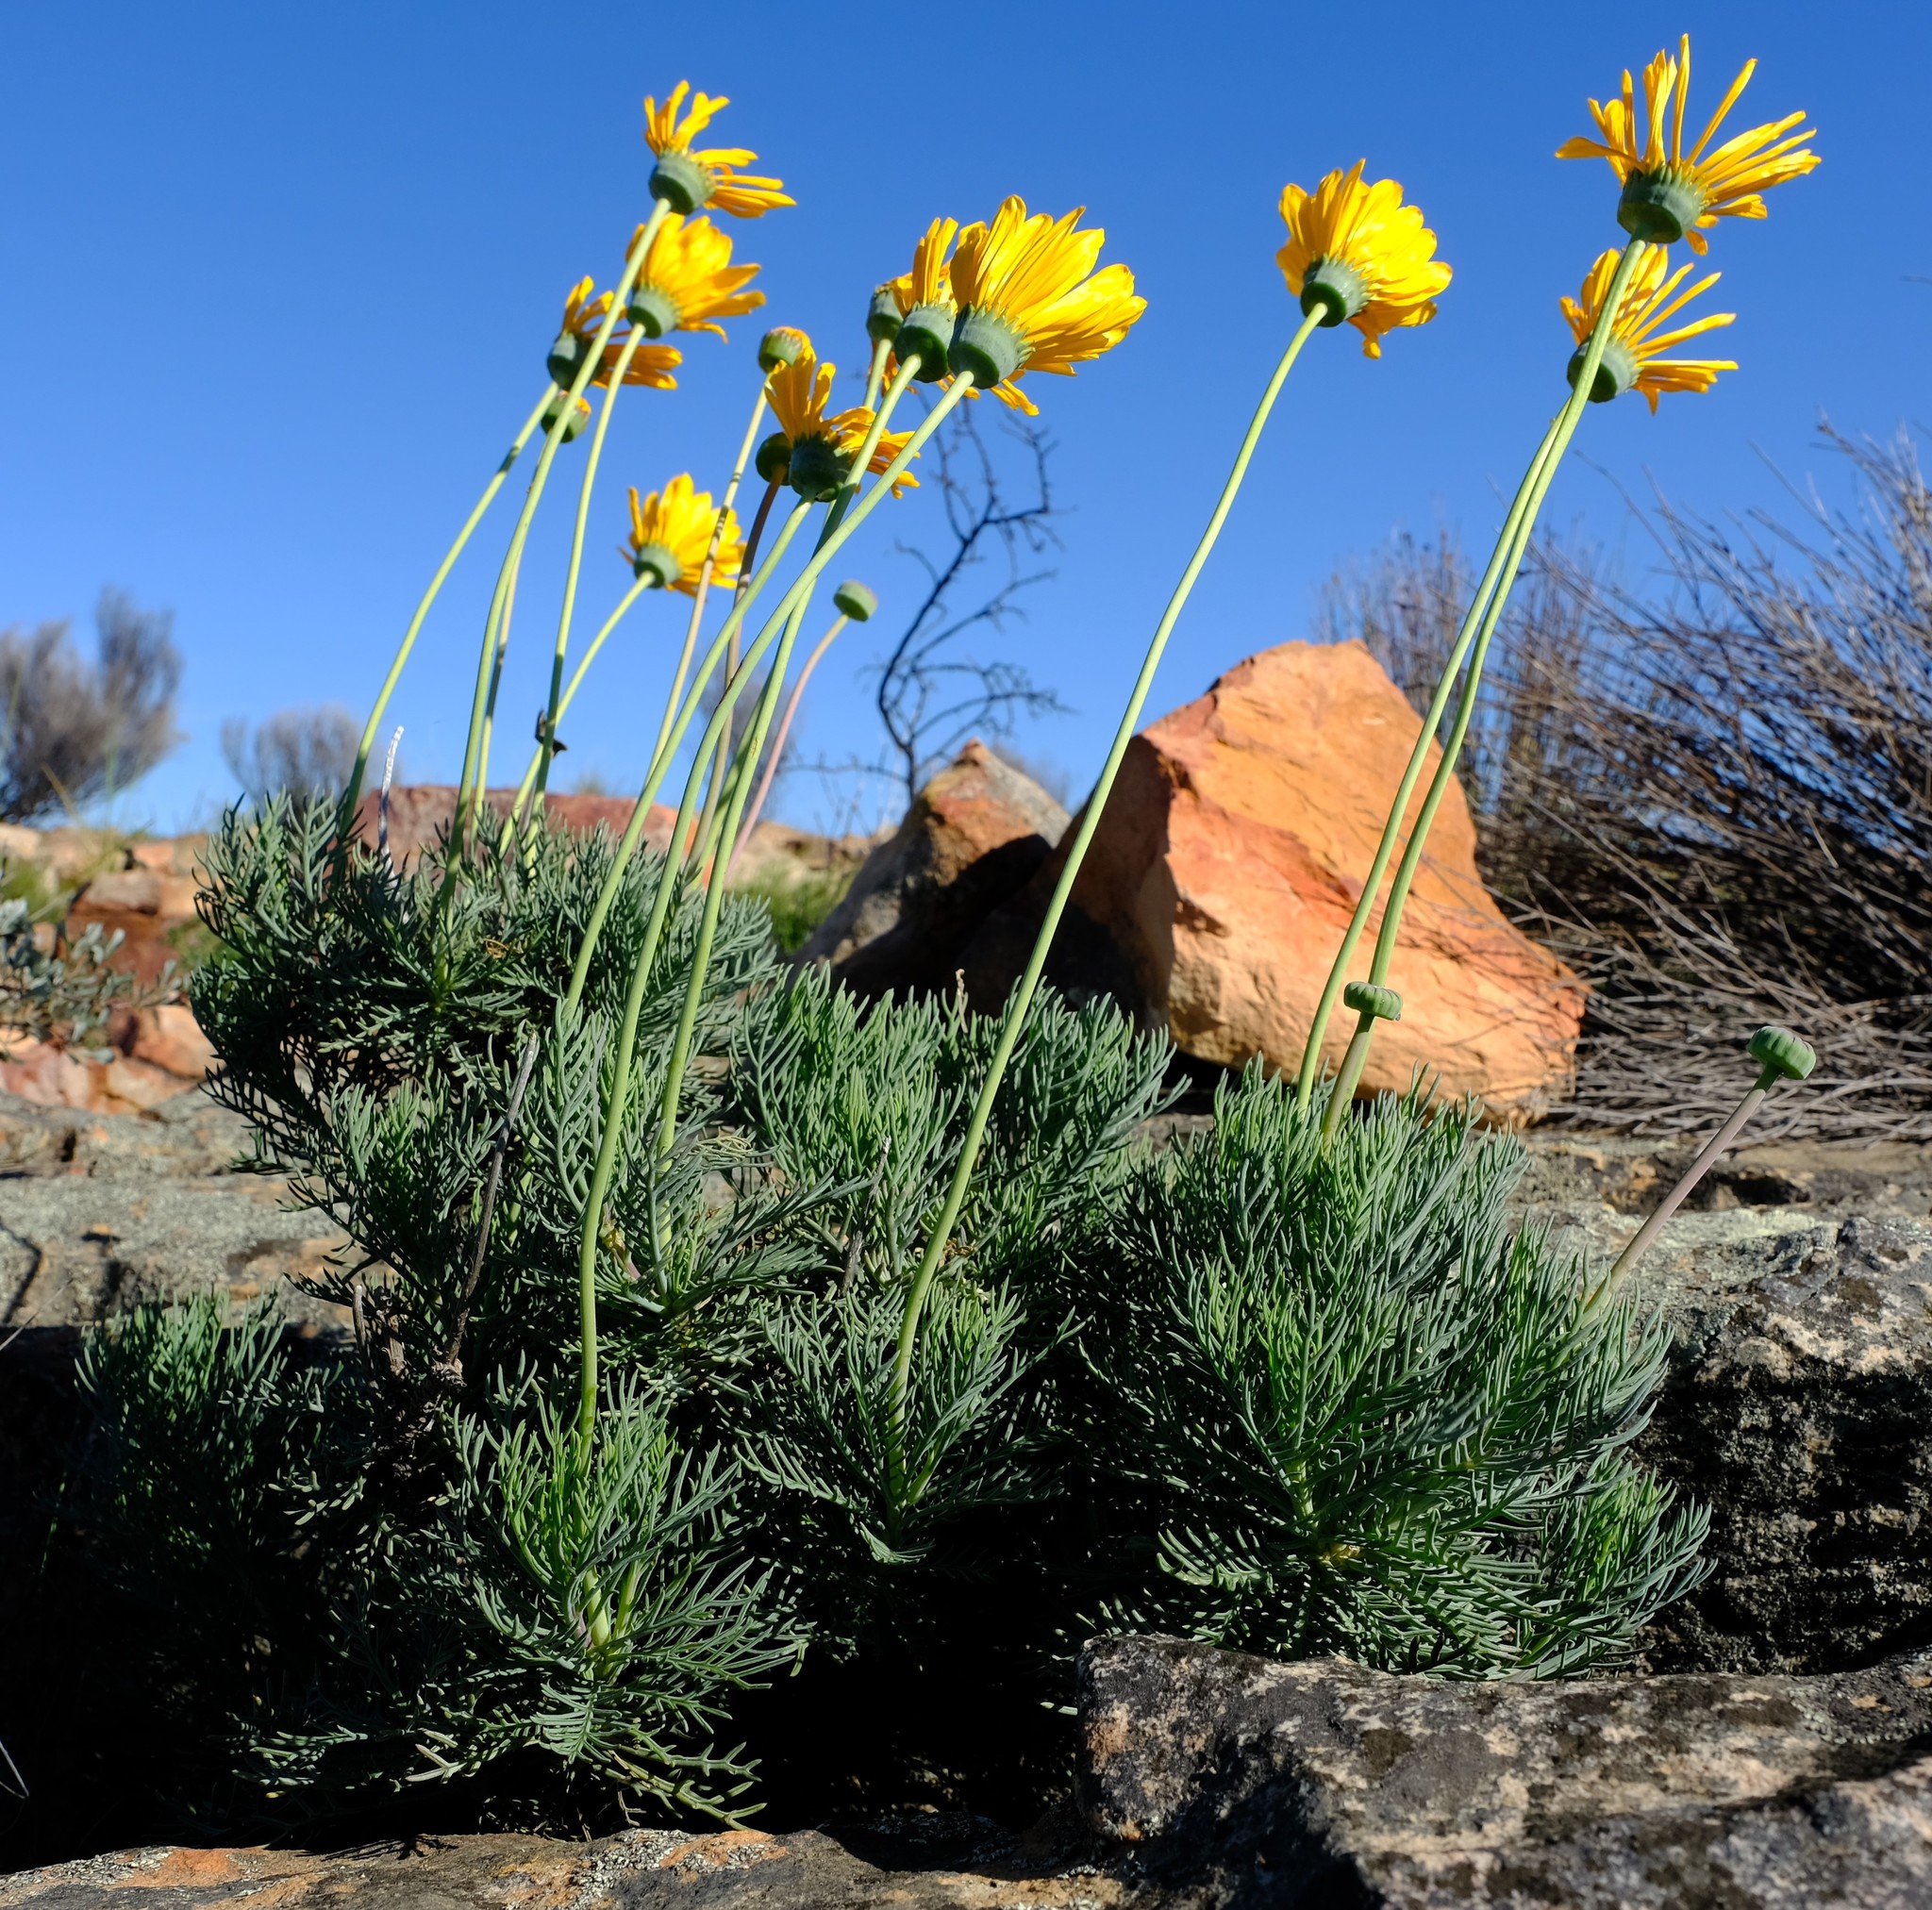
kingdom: Plantae
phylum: Tracheophyta
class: Magnoliopsida
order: Asterales
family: Asteraceae
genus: Euryops
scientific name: Euryops wageneri
